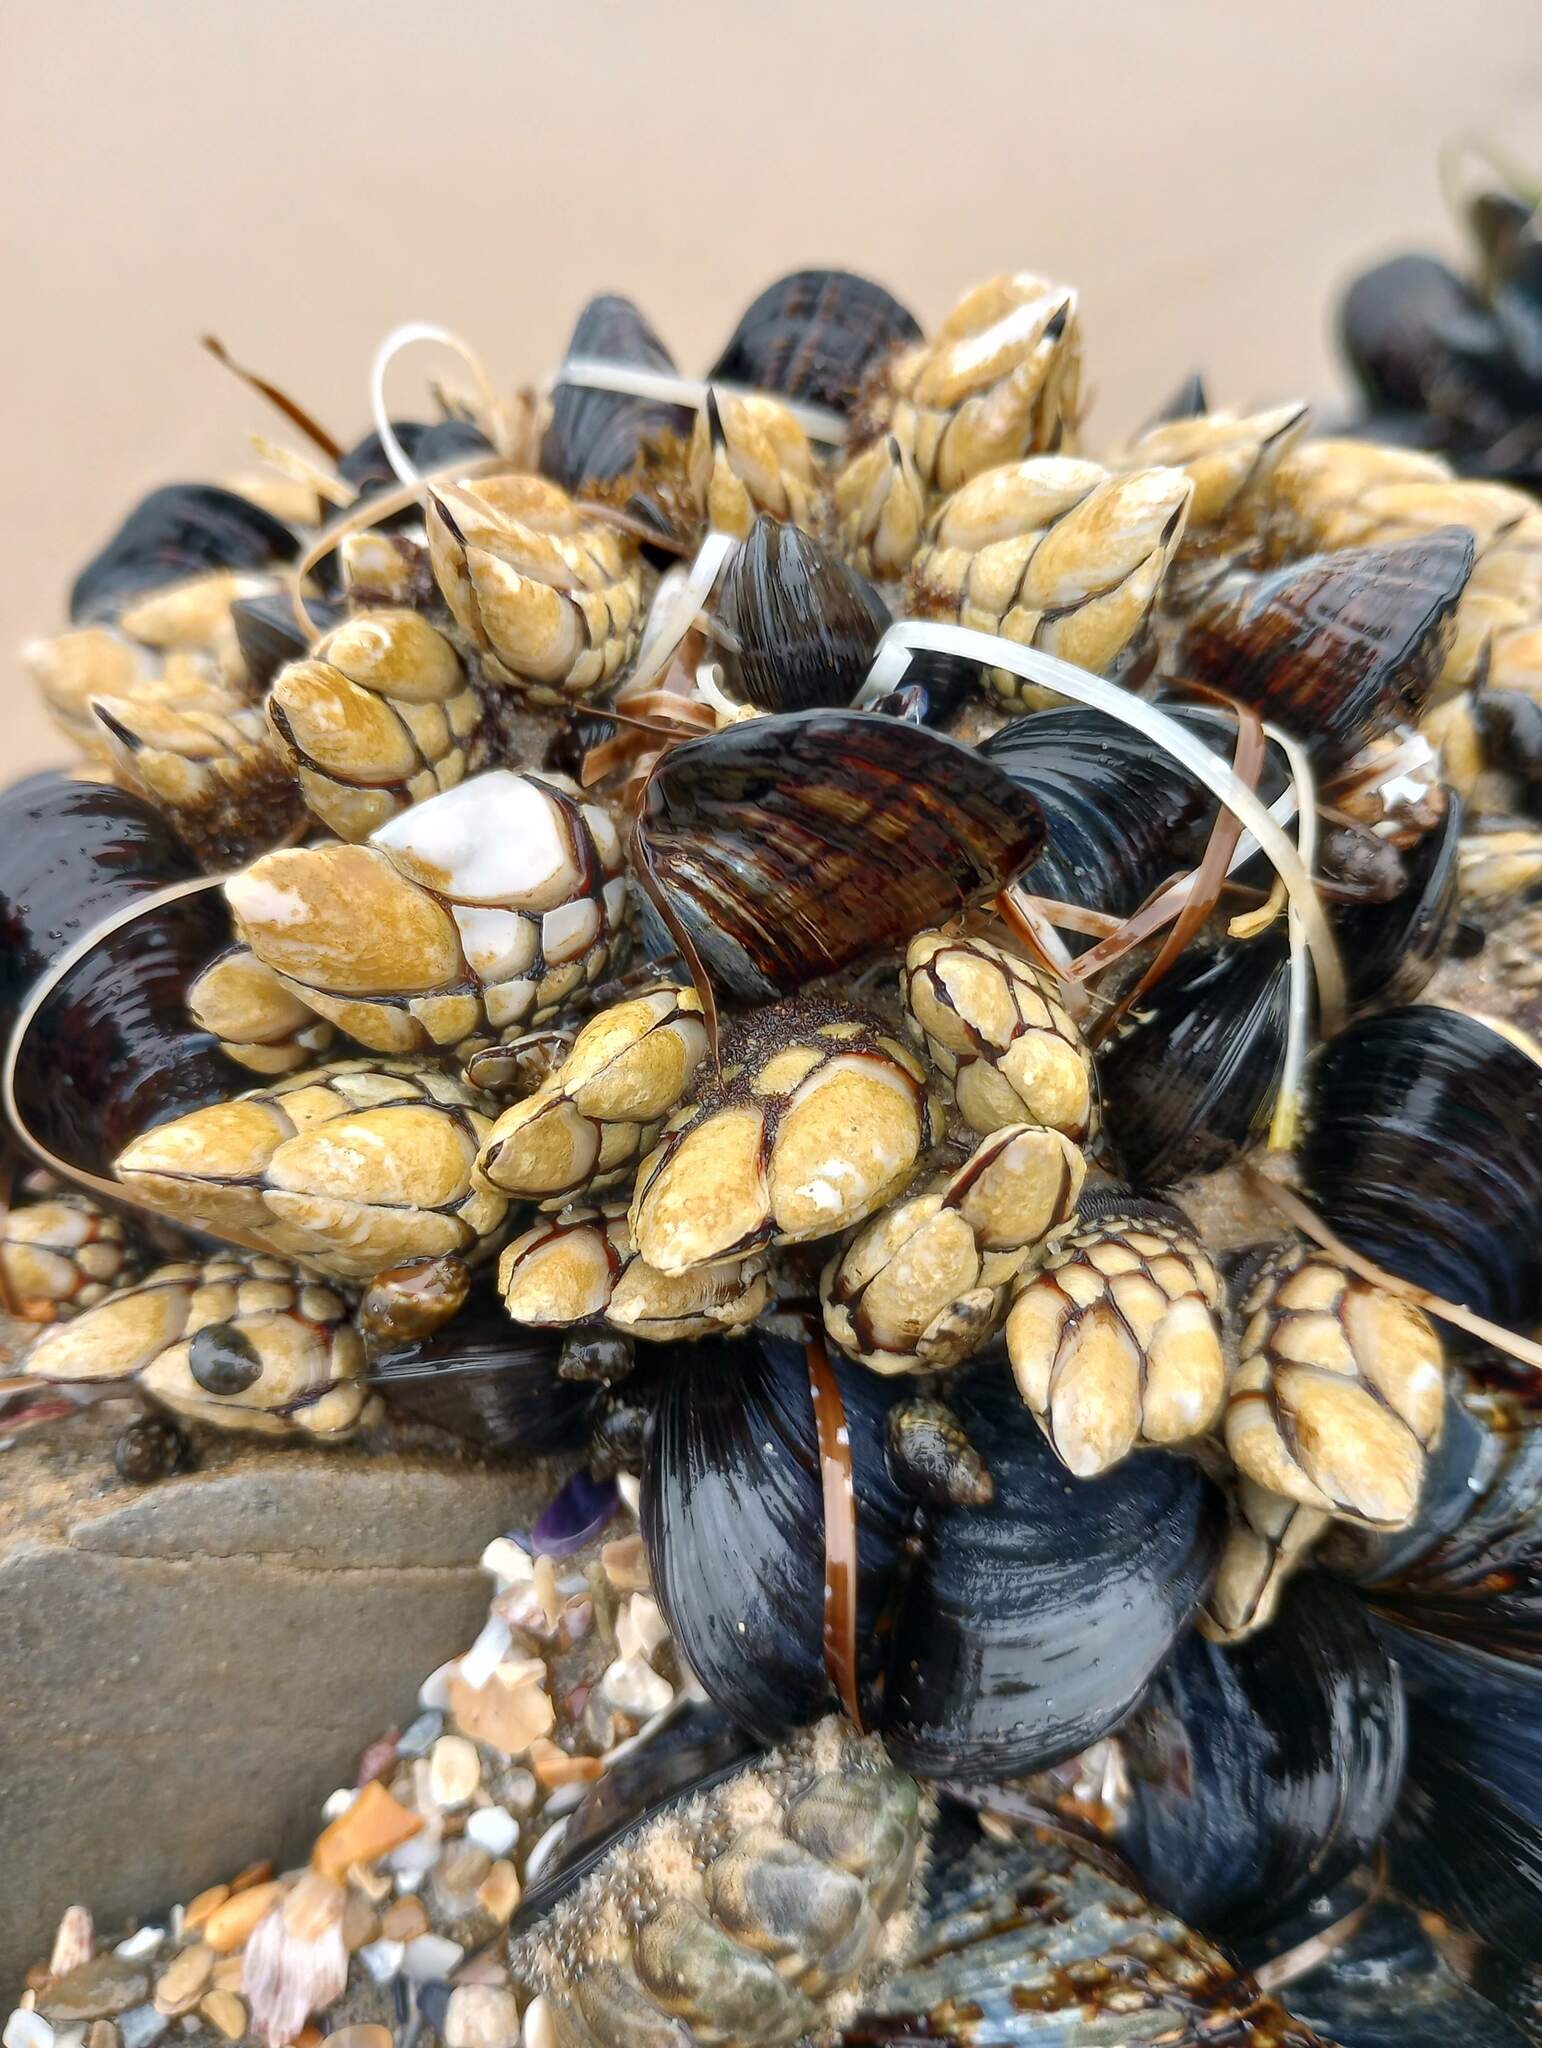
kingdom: Animalia
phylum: Arthropoda
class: Maxillopoda
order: Pedunculata
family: Pollicipedidae
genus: Pollicipes
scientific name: Pollicipes polymerus
